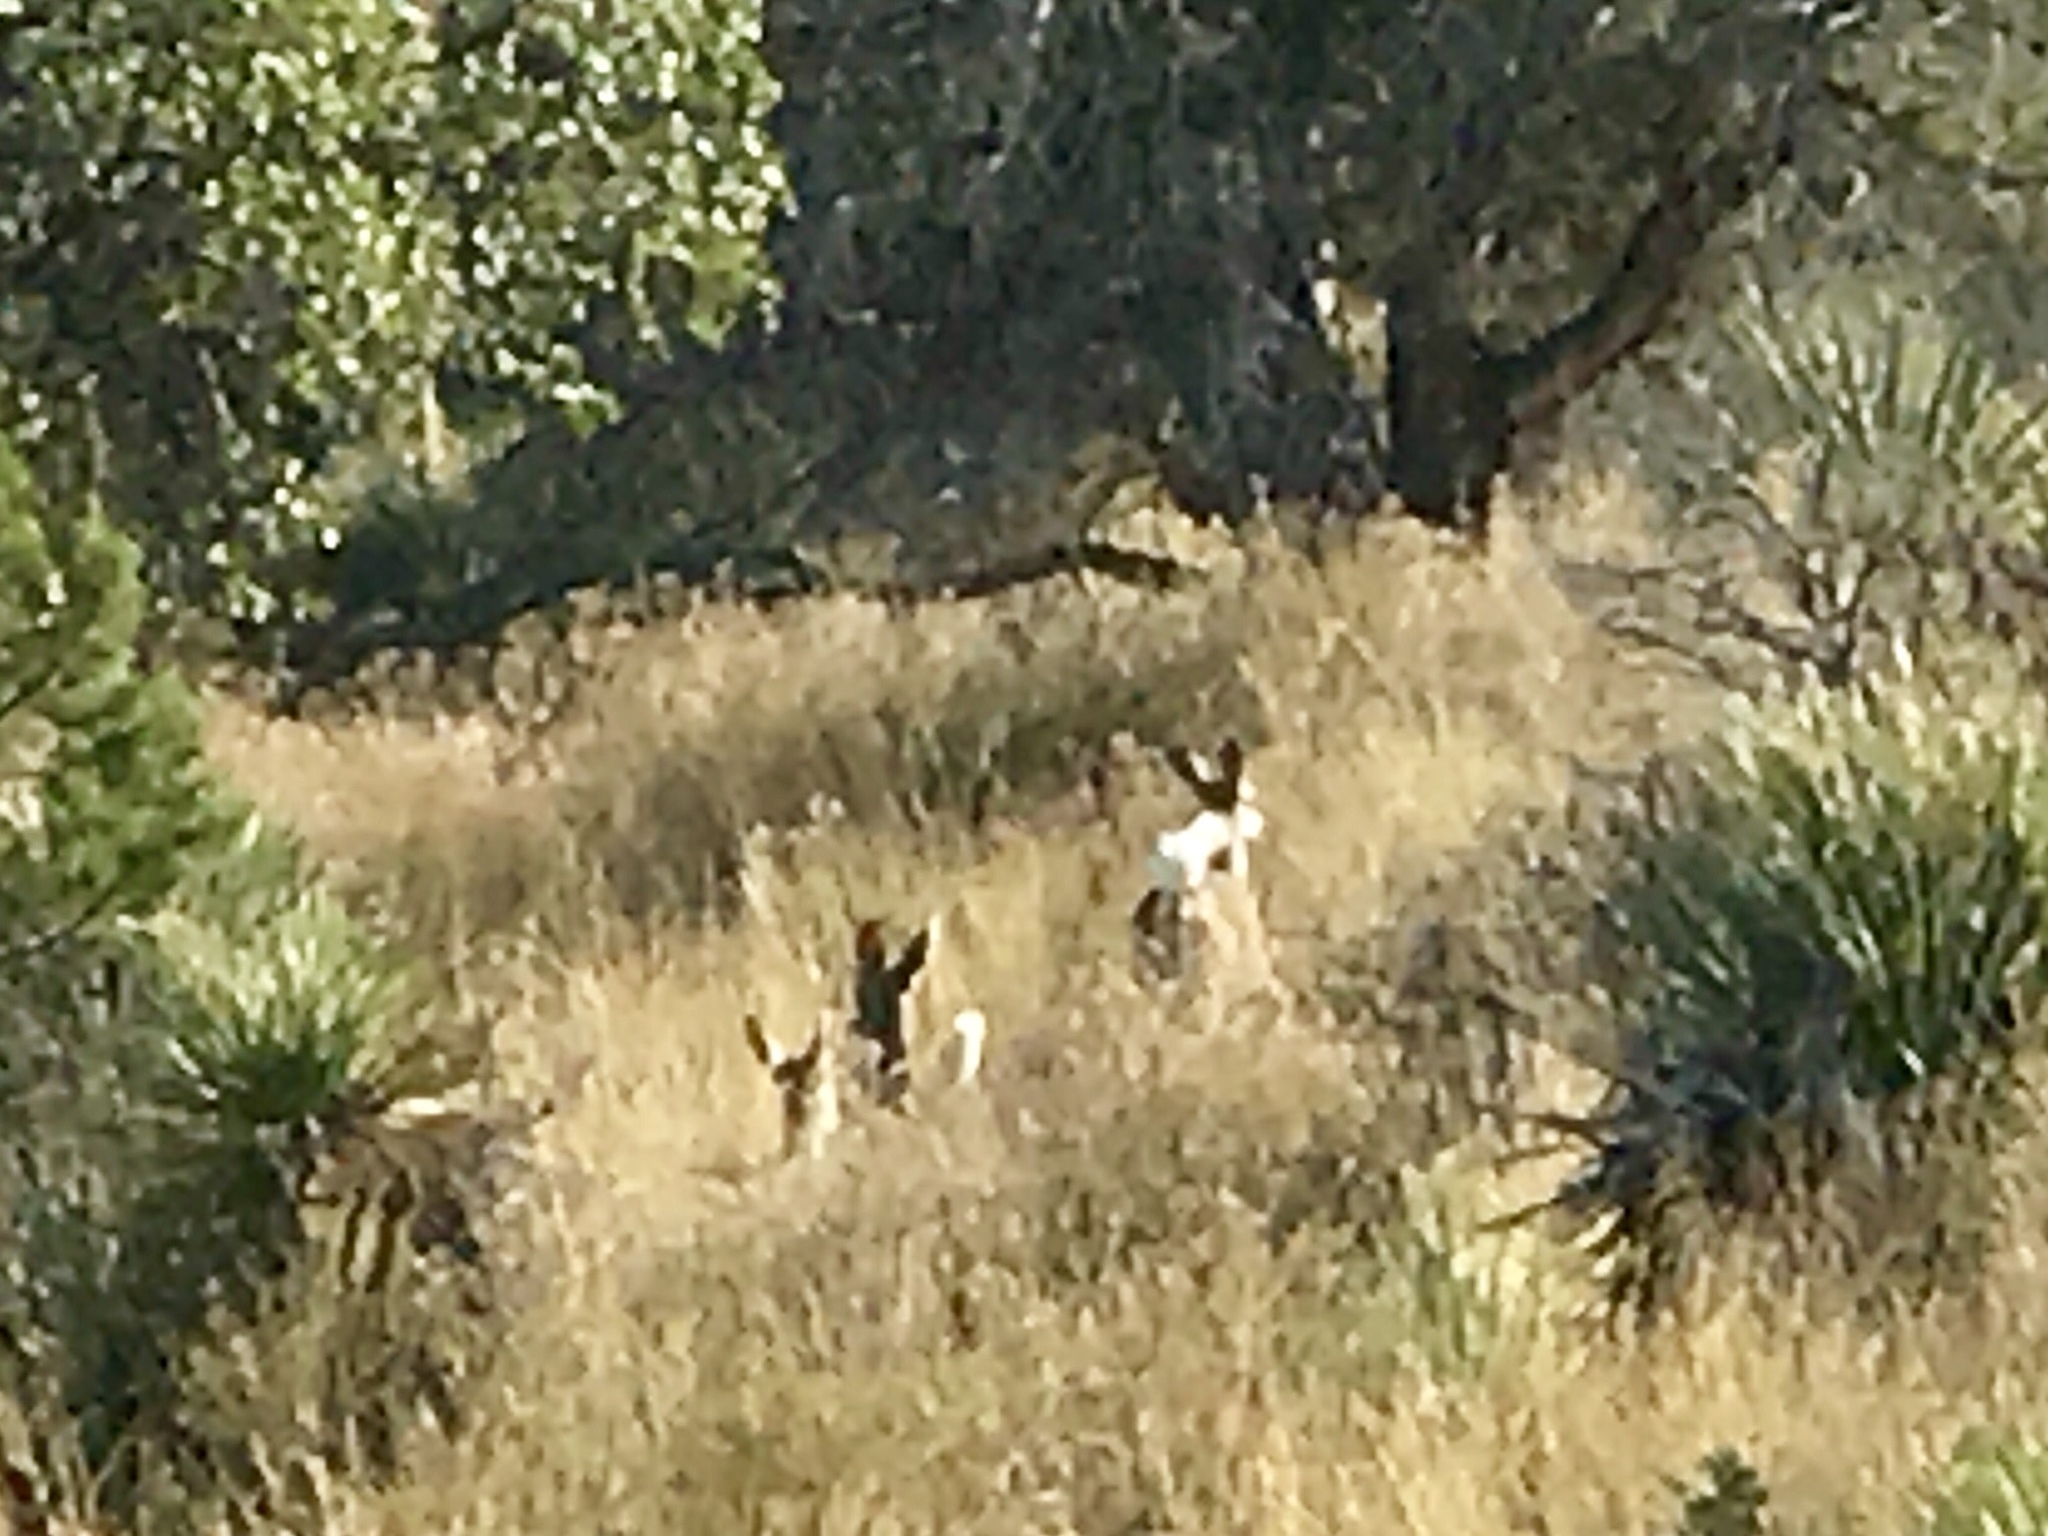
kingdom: Animalia
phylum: Chordata
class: Mammalia
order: Artiodactyla
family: Cervidae
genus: Odocoileus
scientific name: Odocoileus virginianus
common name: White-tailed deer
